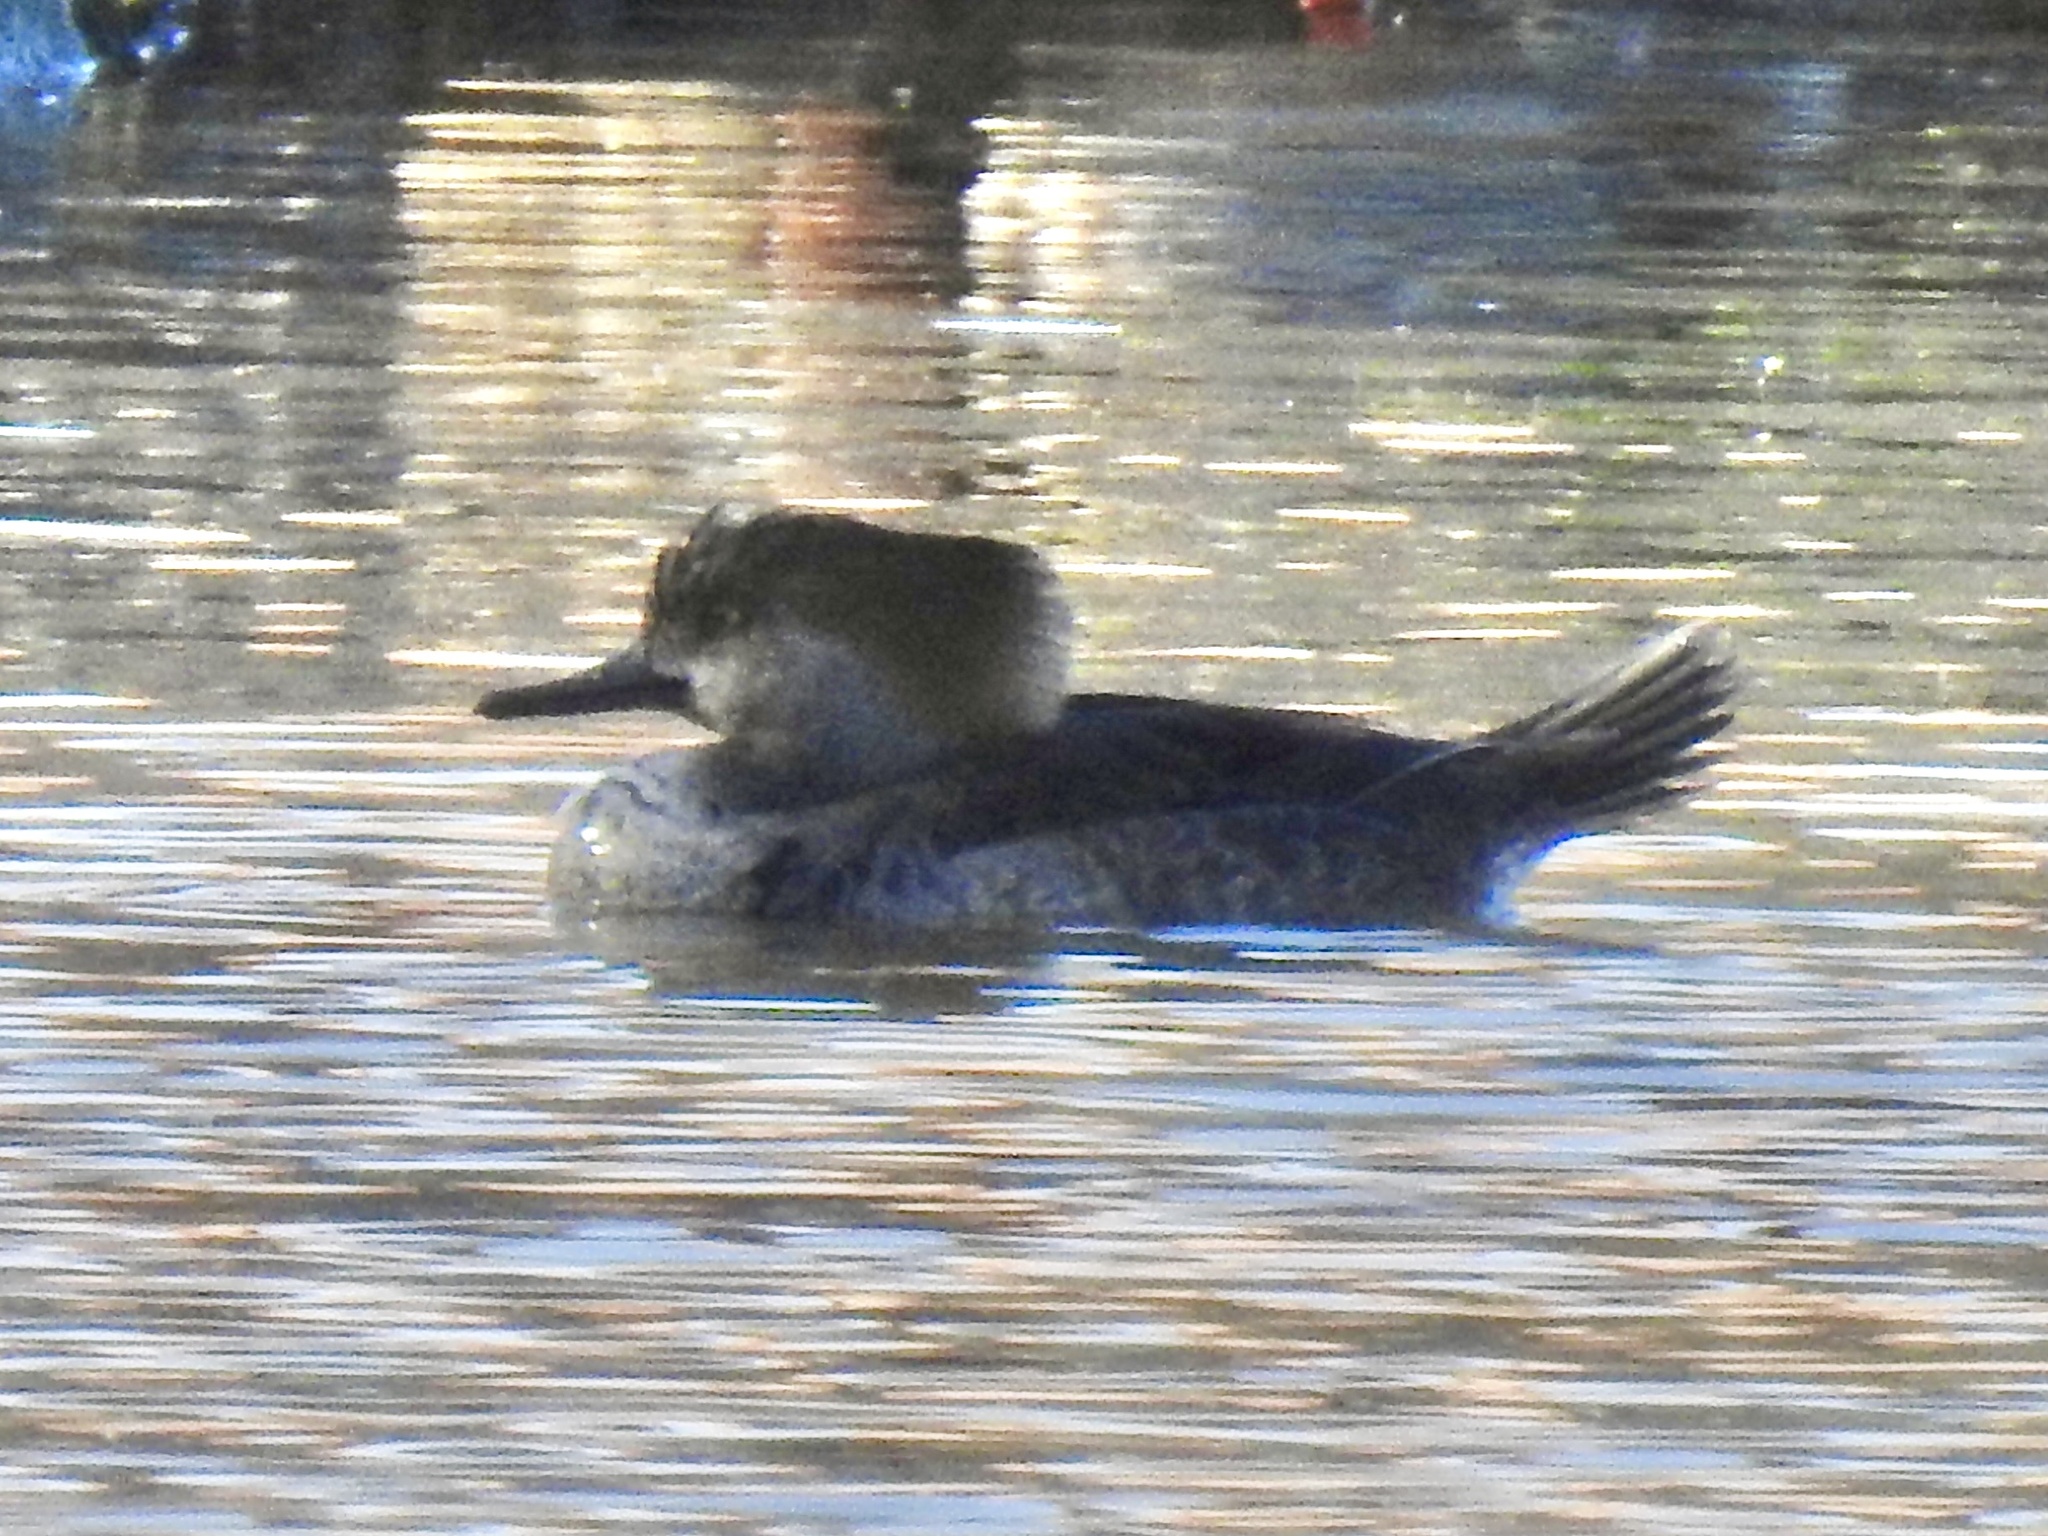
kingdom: Animalia
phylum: Chordata
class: Aves
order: Anseriformes
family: Anatidae
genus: Lophodytes
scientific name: Lophodytes cucullatus
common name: Hooded merganser
